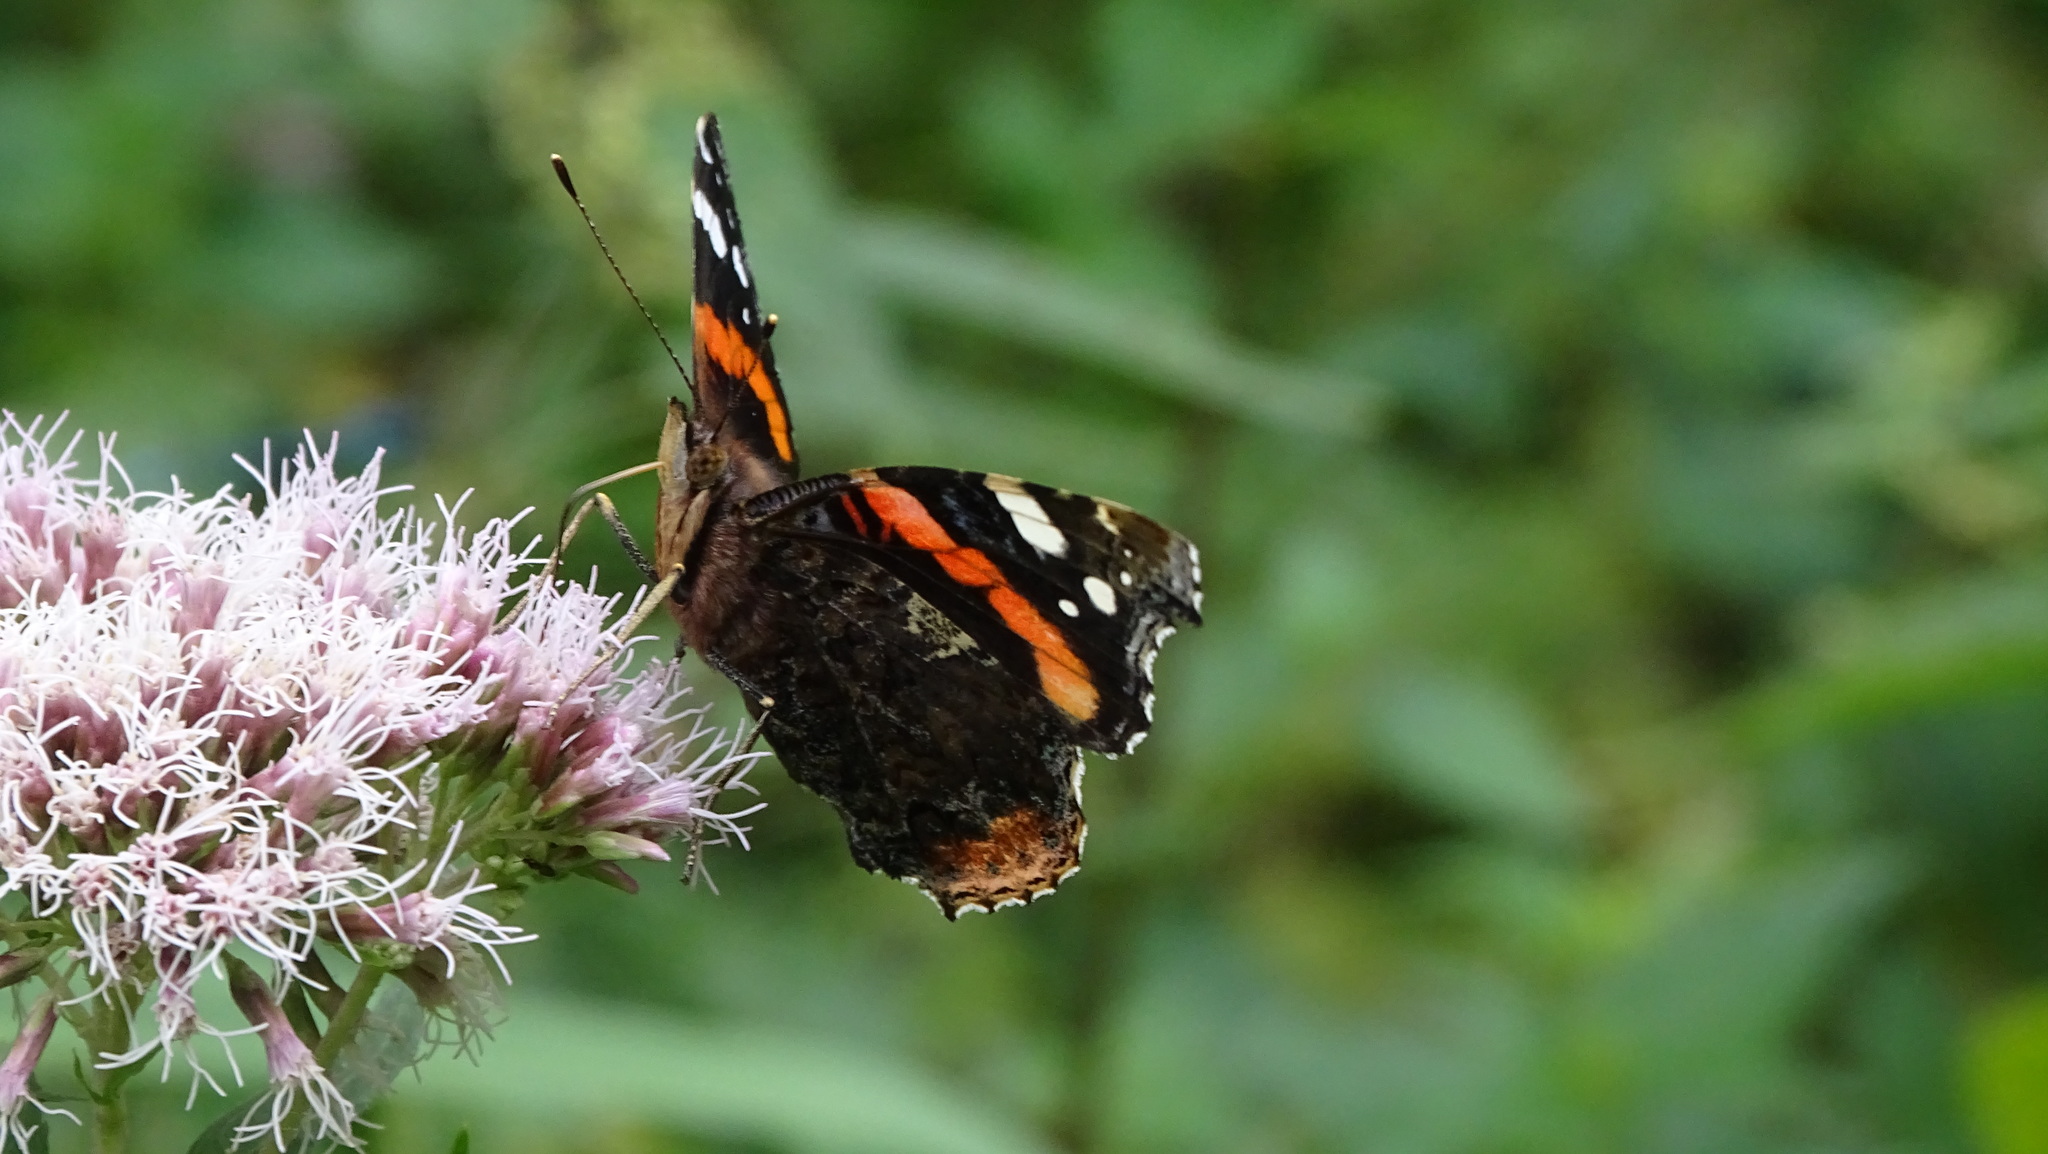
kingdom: Animalia
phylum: Arthropoda
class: Insecta
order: Lepidoptera
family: Nymphalidae
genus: Vanessa
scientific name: Vanessa atalanta
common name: Red admiral
